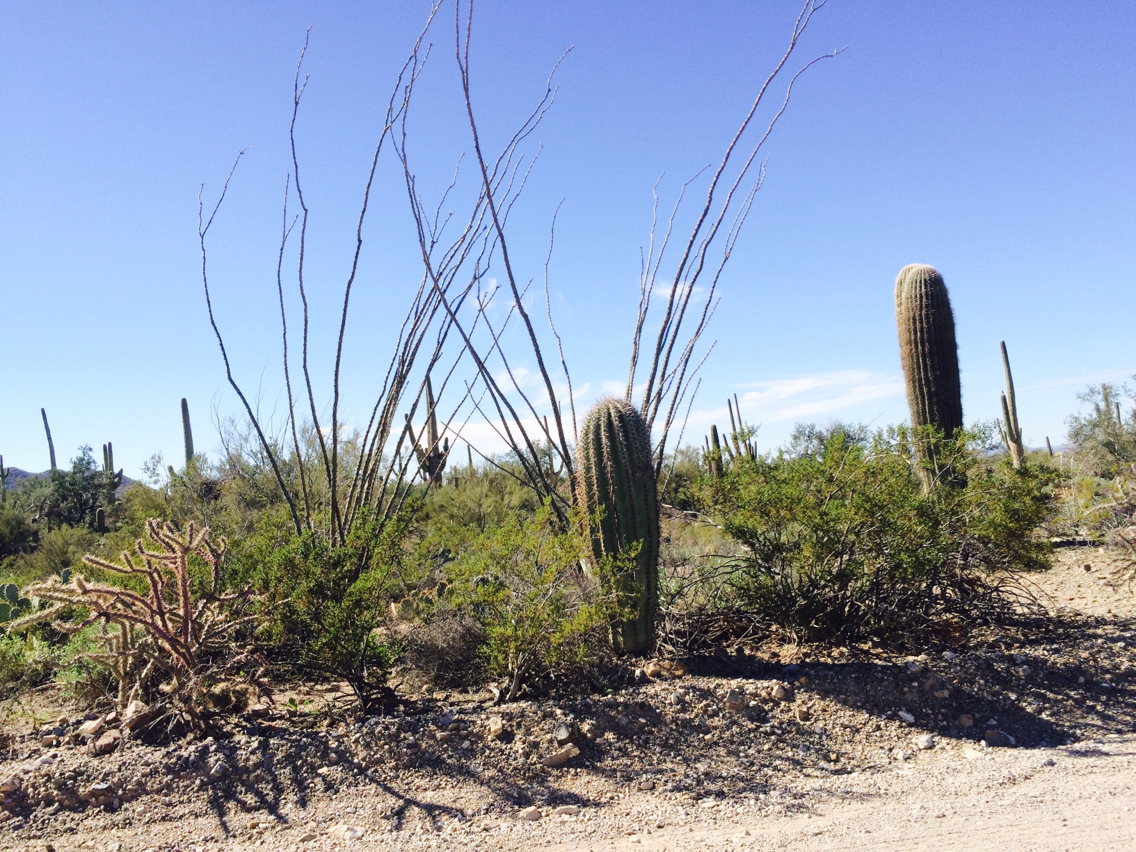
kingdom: Plantae
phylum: Tracheophyta
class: Magnoliopsida
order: Caryophyllales
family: Cactaceae
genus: Carnegiea
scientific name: Carnegiea gigantea
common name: Saguaro
